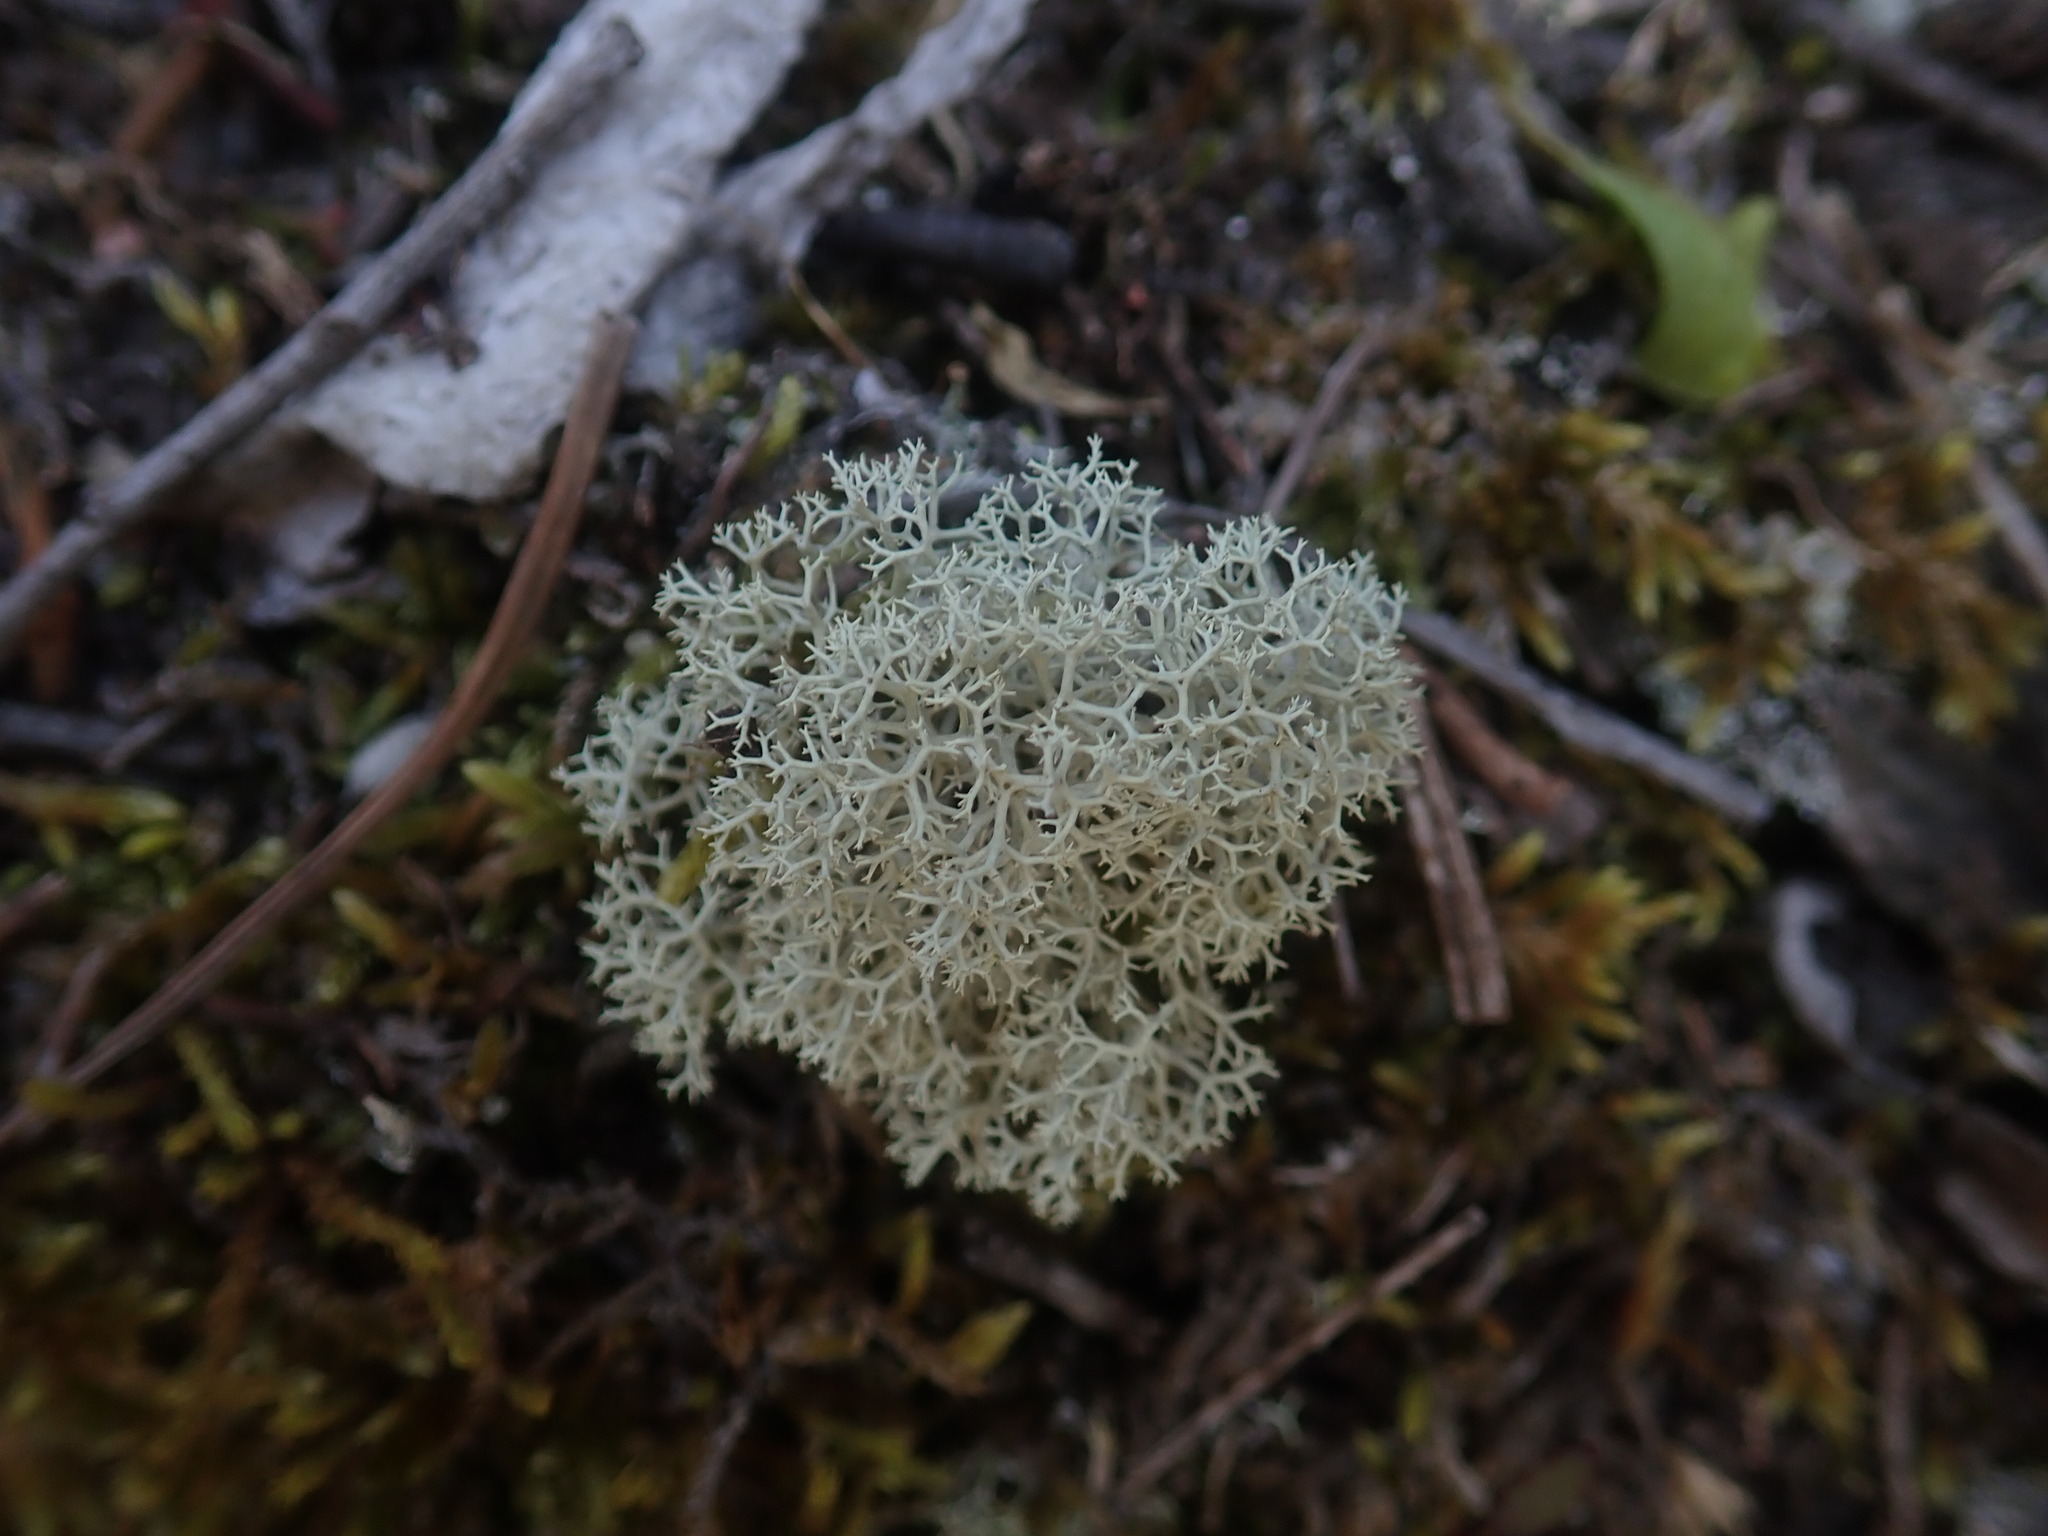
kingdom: Fungi
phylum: Ascomycota
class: Lecanoromycetes
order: Lecanorales
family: Cladoniaceae
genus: Cladonia
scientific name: Cladonia confusa
